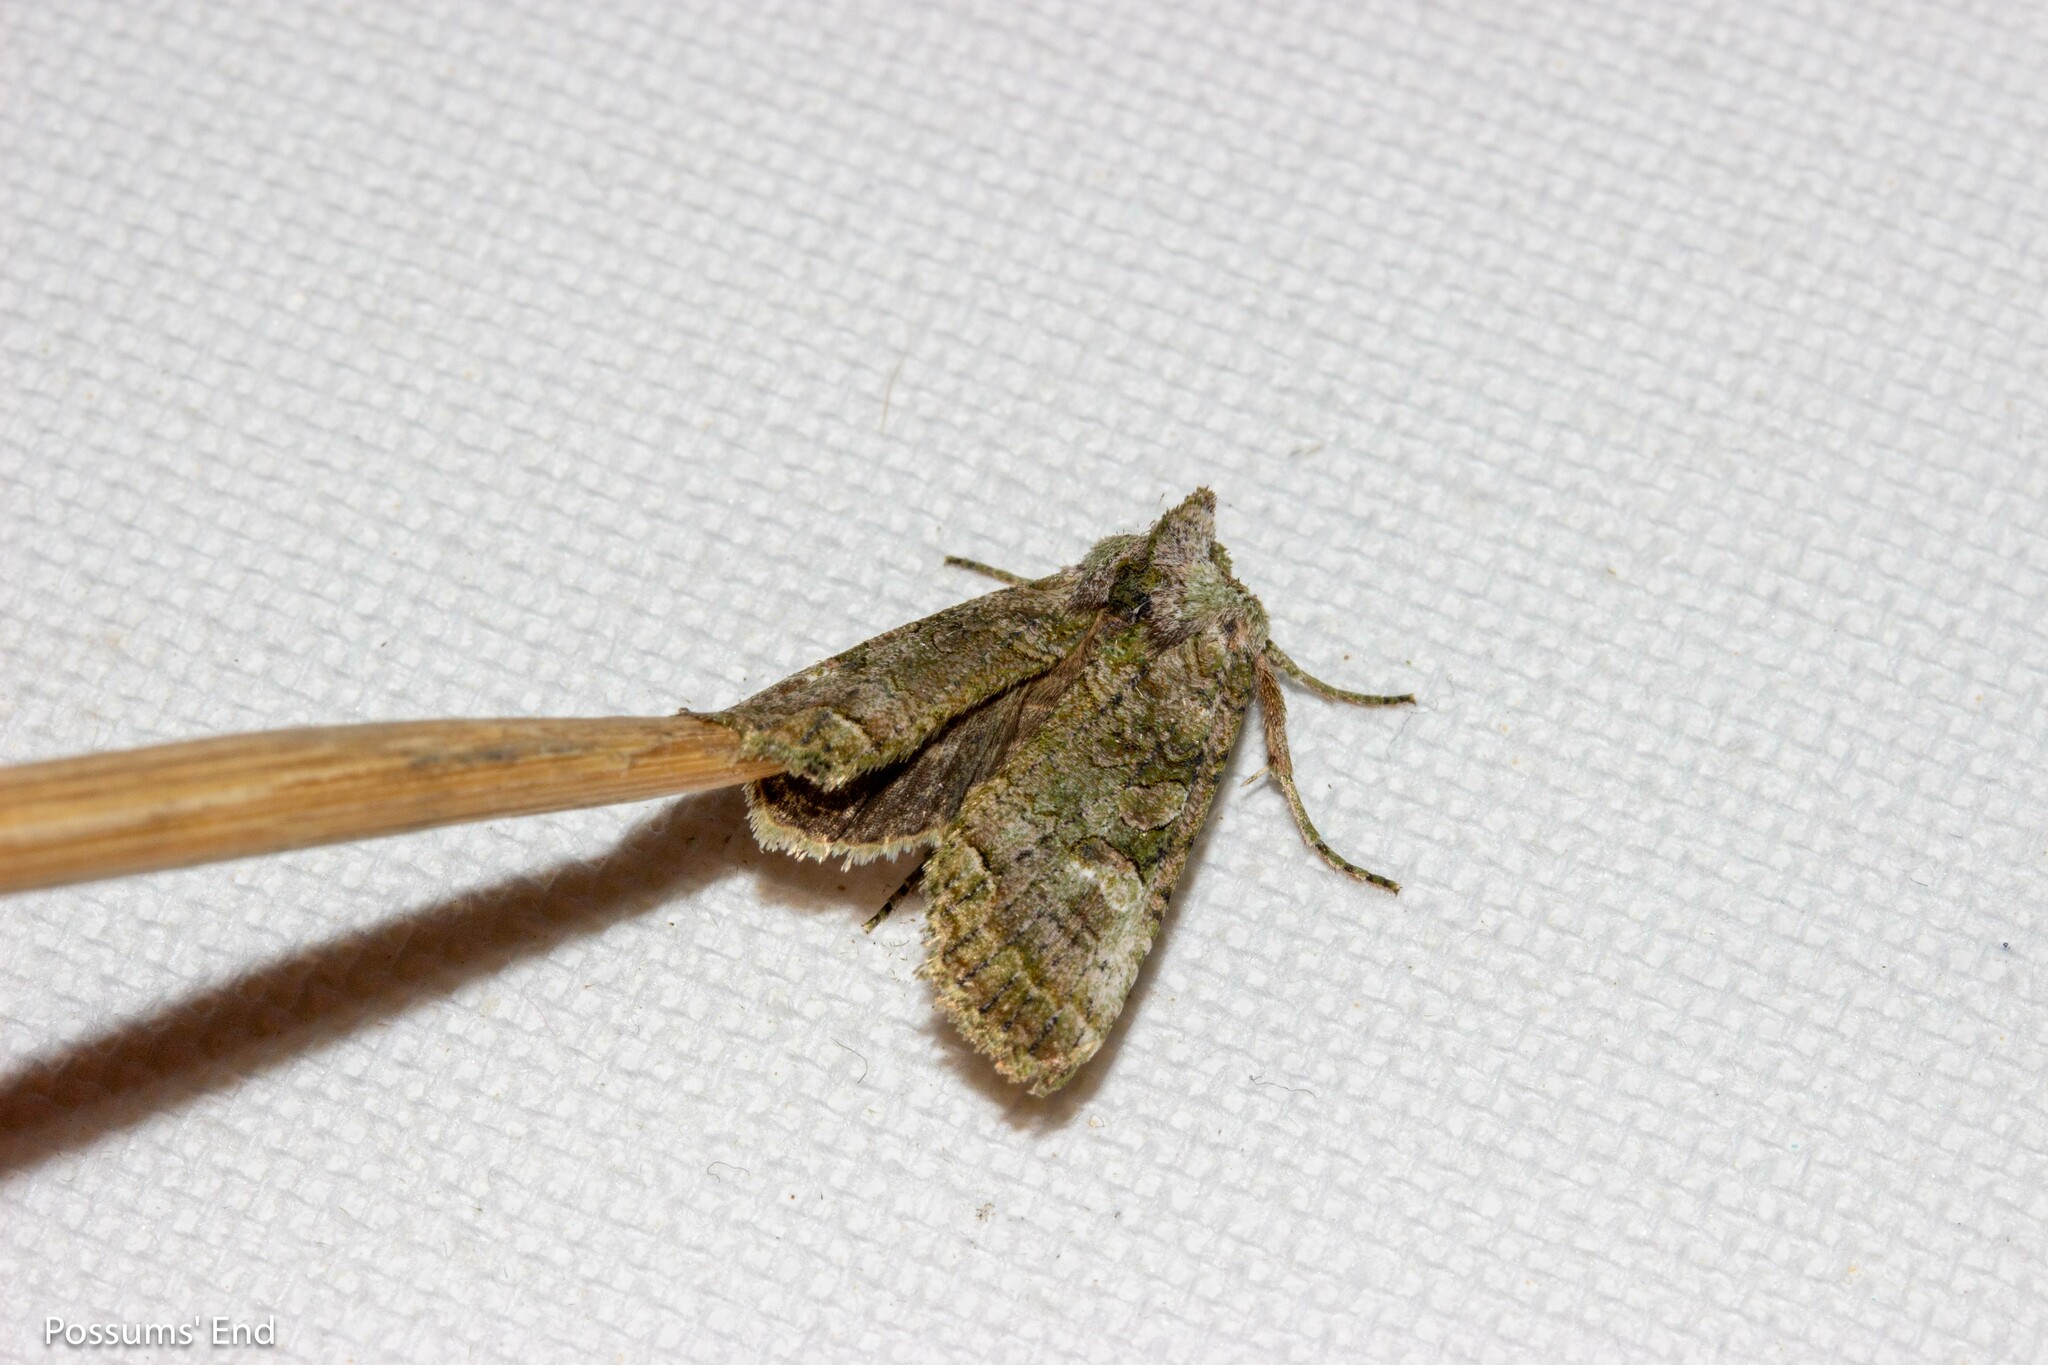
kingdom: Animalia
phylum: Arthropoda
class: Insecta
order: Lepidoptera
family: Noctuidae
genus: Meterana
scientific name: Meterana levis
